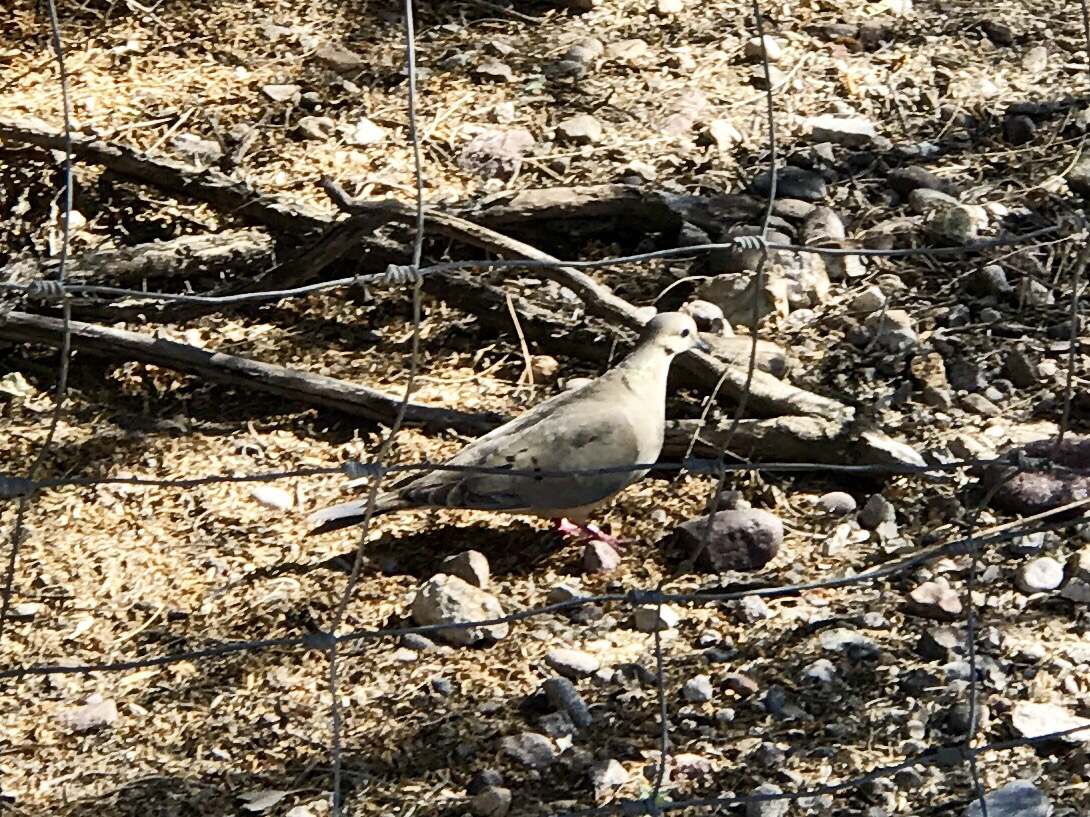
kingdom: Animalia
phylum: Chordata
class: Aves
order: Columbiformes
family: Columbidae
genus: Zenaida
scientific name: Zenaida macroura
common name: Mourning dove
